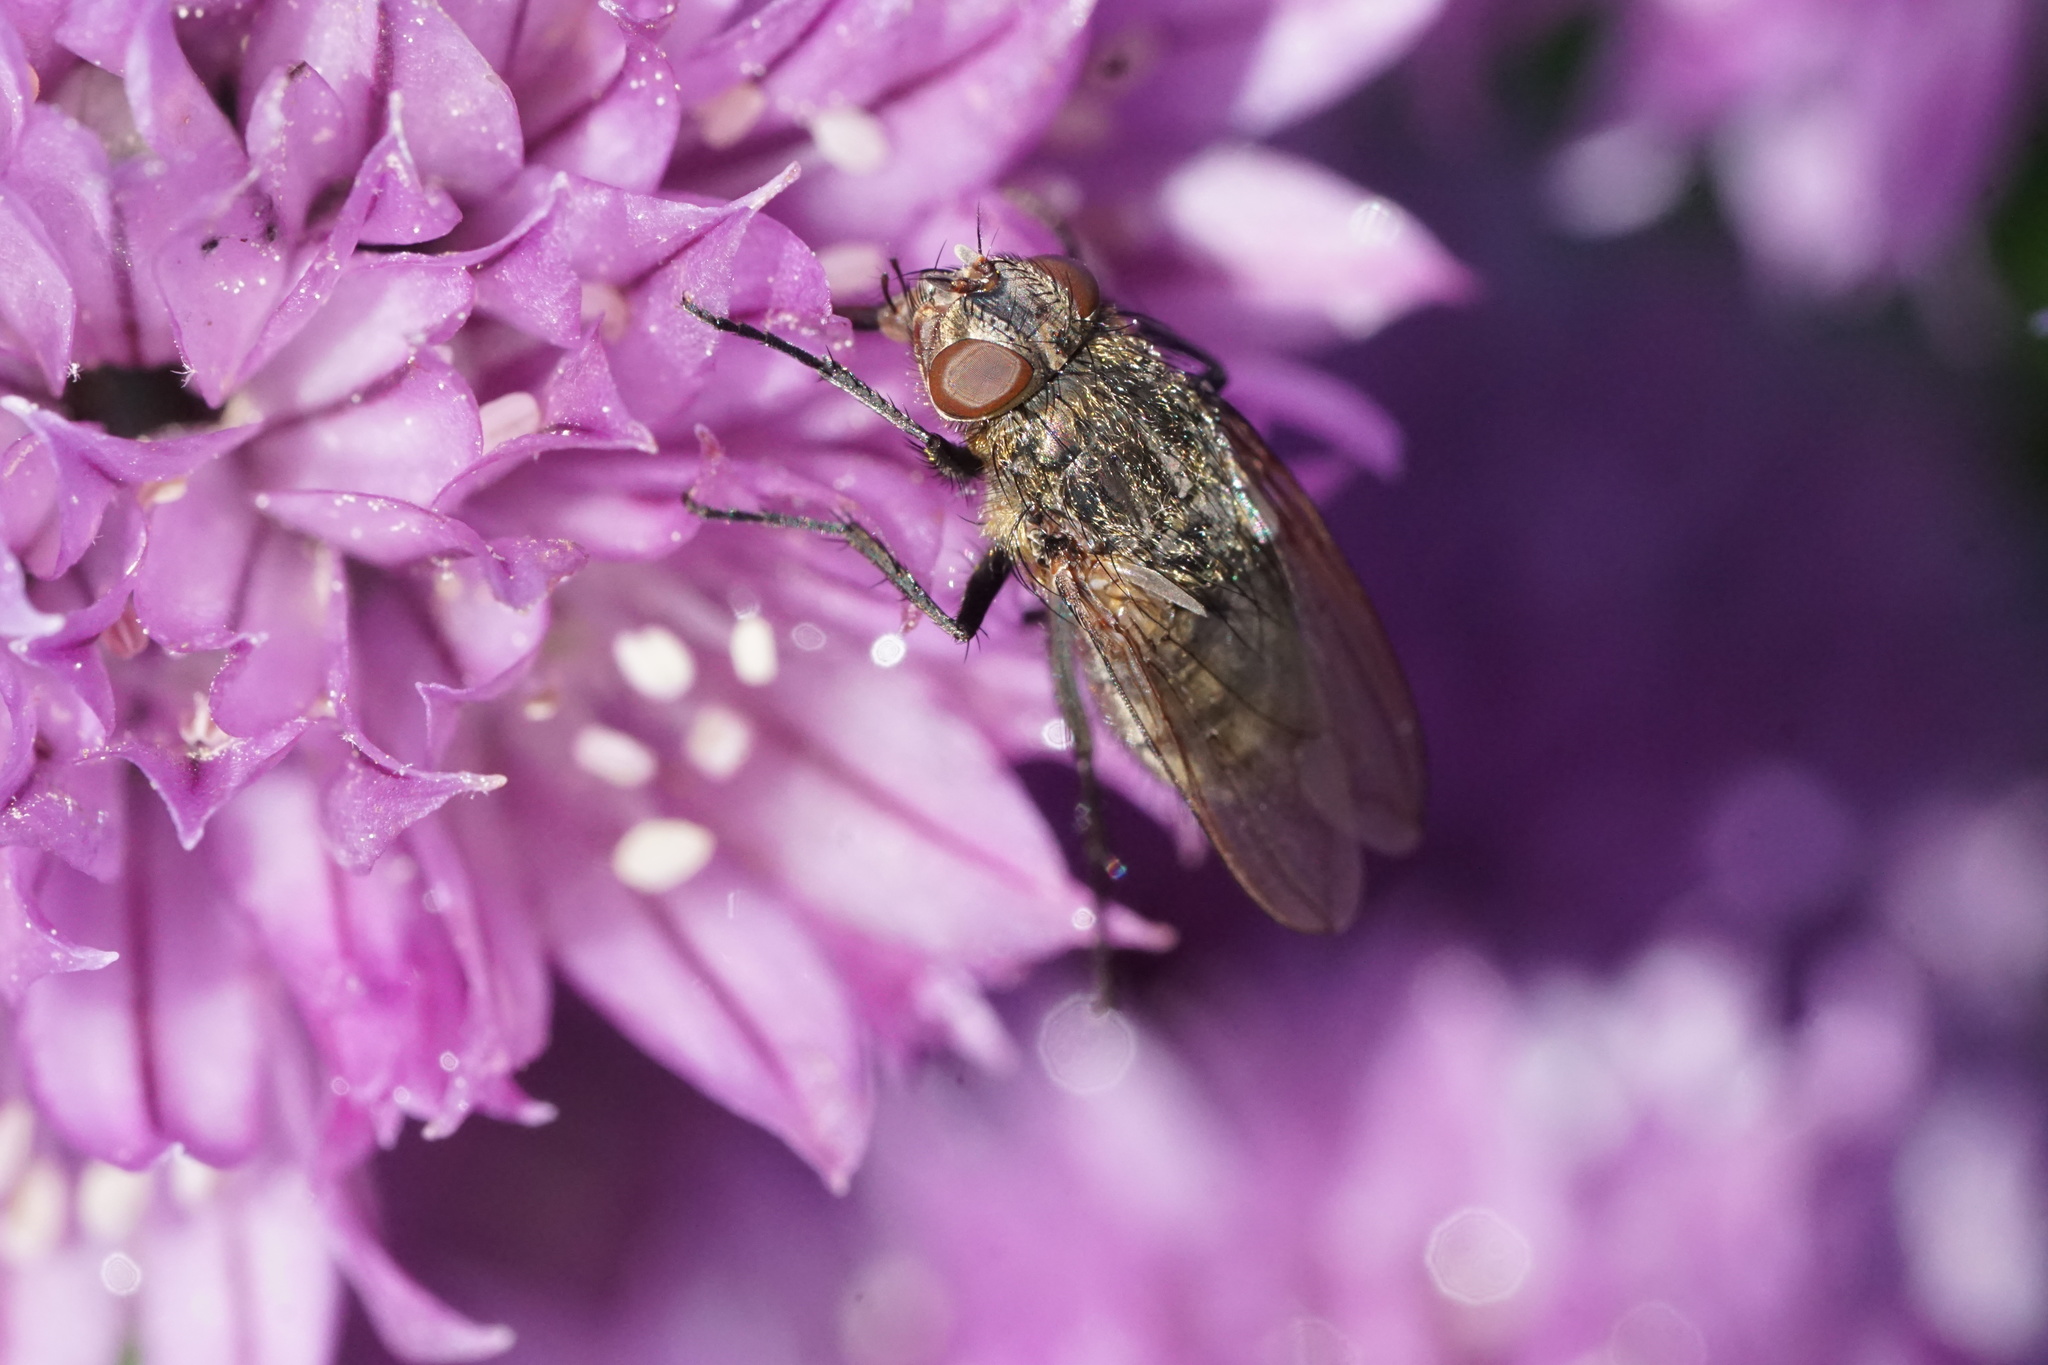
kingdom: Animalia
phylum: Arthropoda
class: Insecta
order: Diptera
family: Polleniidae
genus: Pollenia
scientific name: Pollenia
